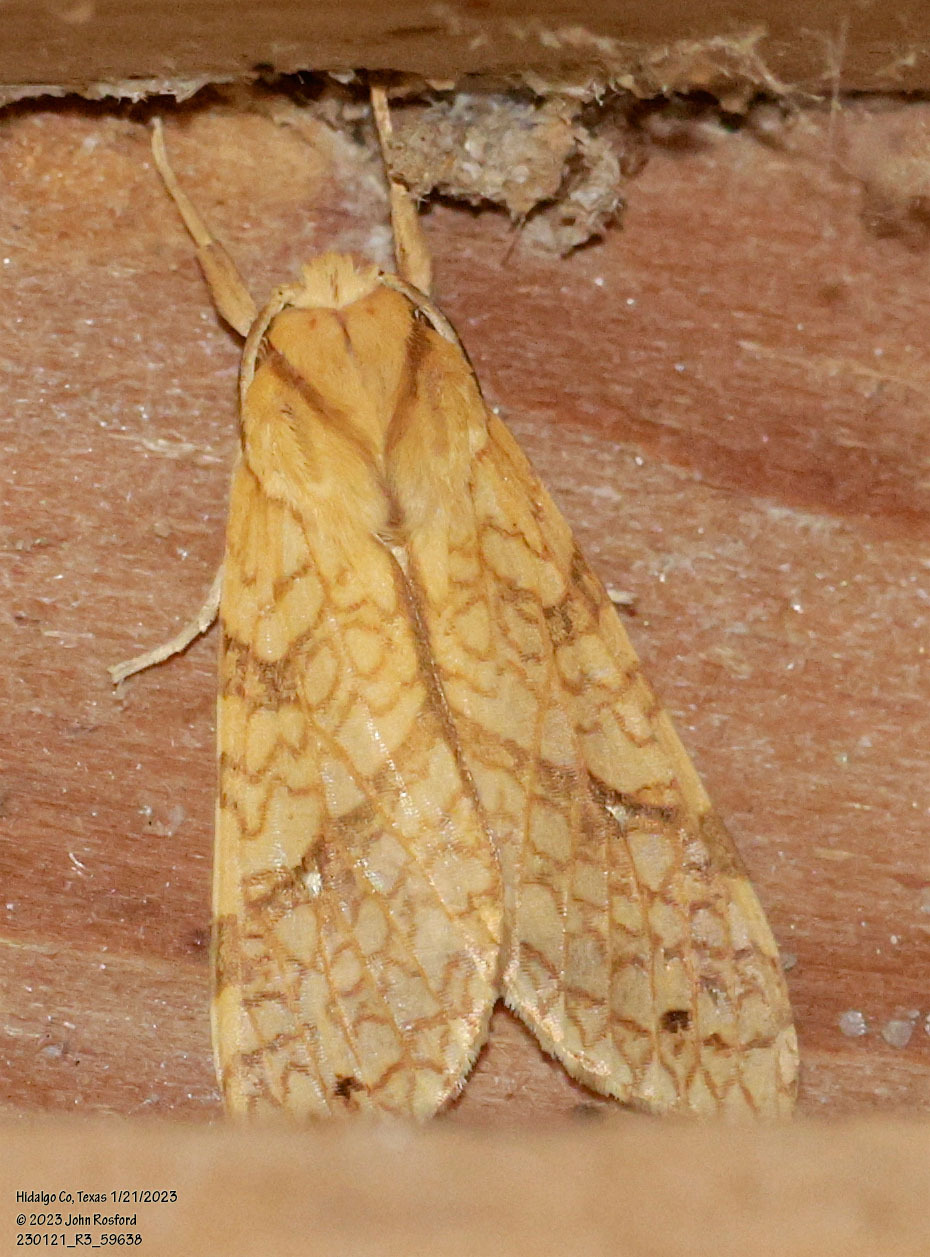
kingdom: Animalia
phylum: Arthropoda
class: Insecta
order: Lepidoptera
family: Erebidae
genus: Lophocampa
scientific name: Lophocampa annulosa
